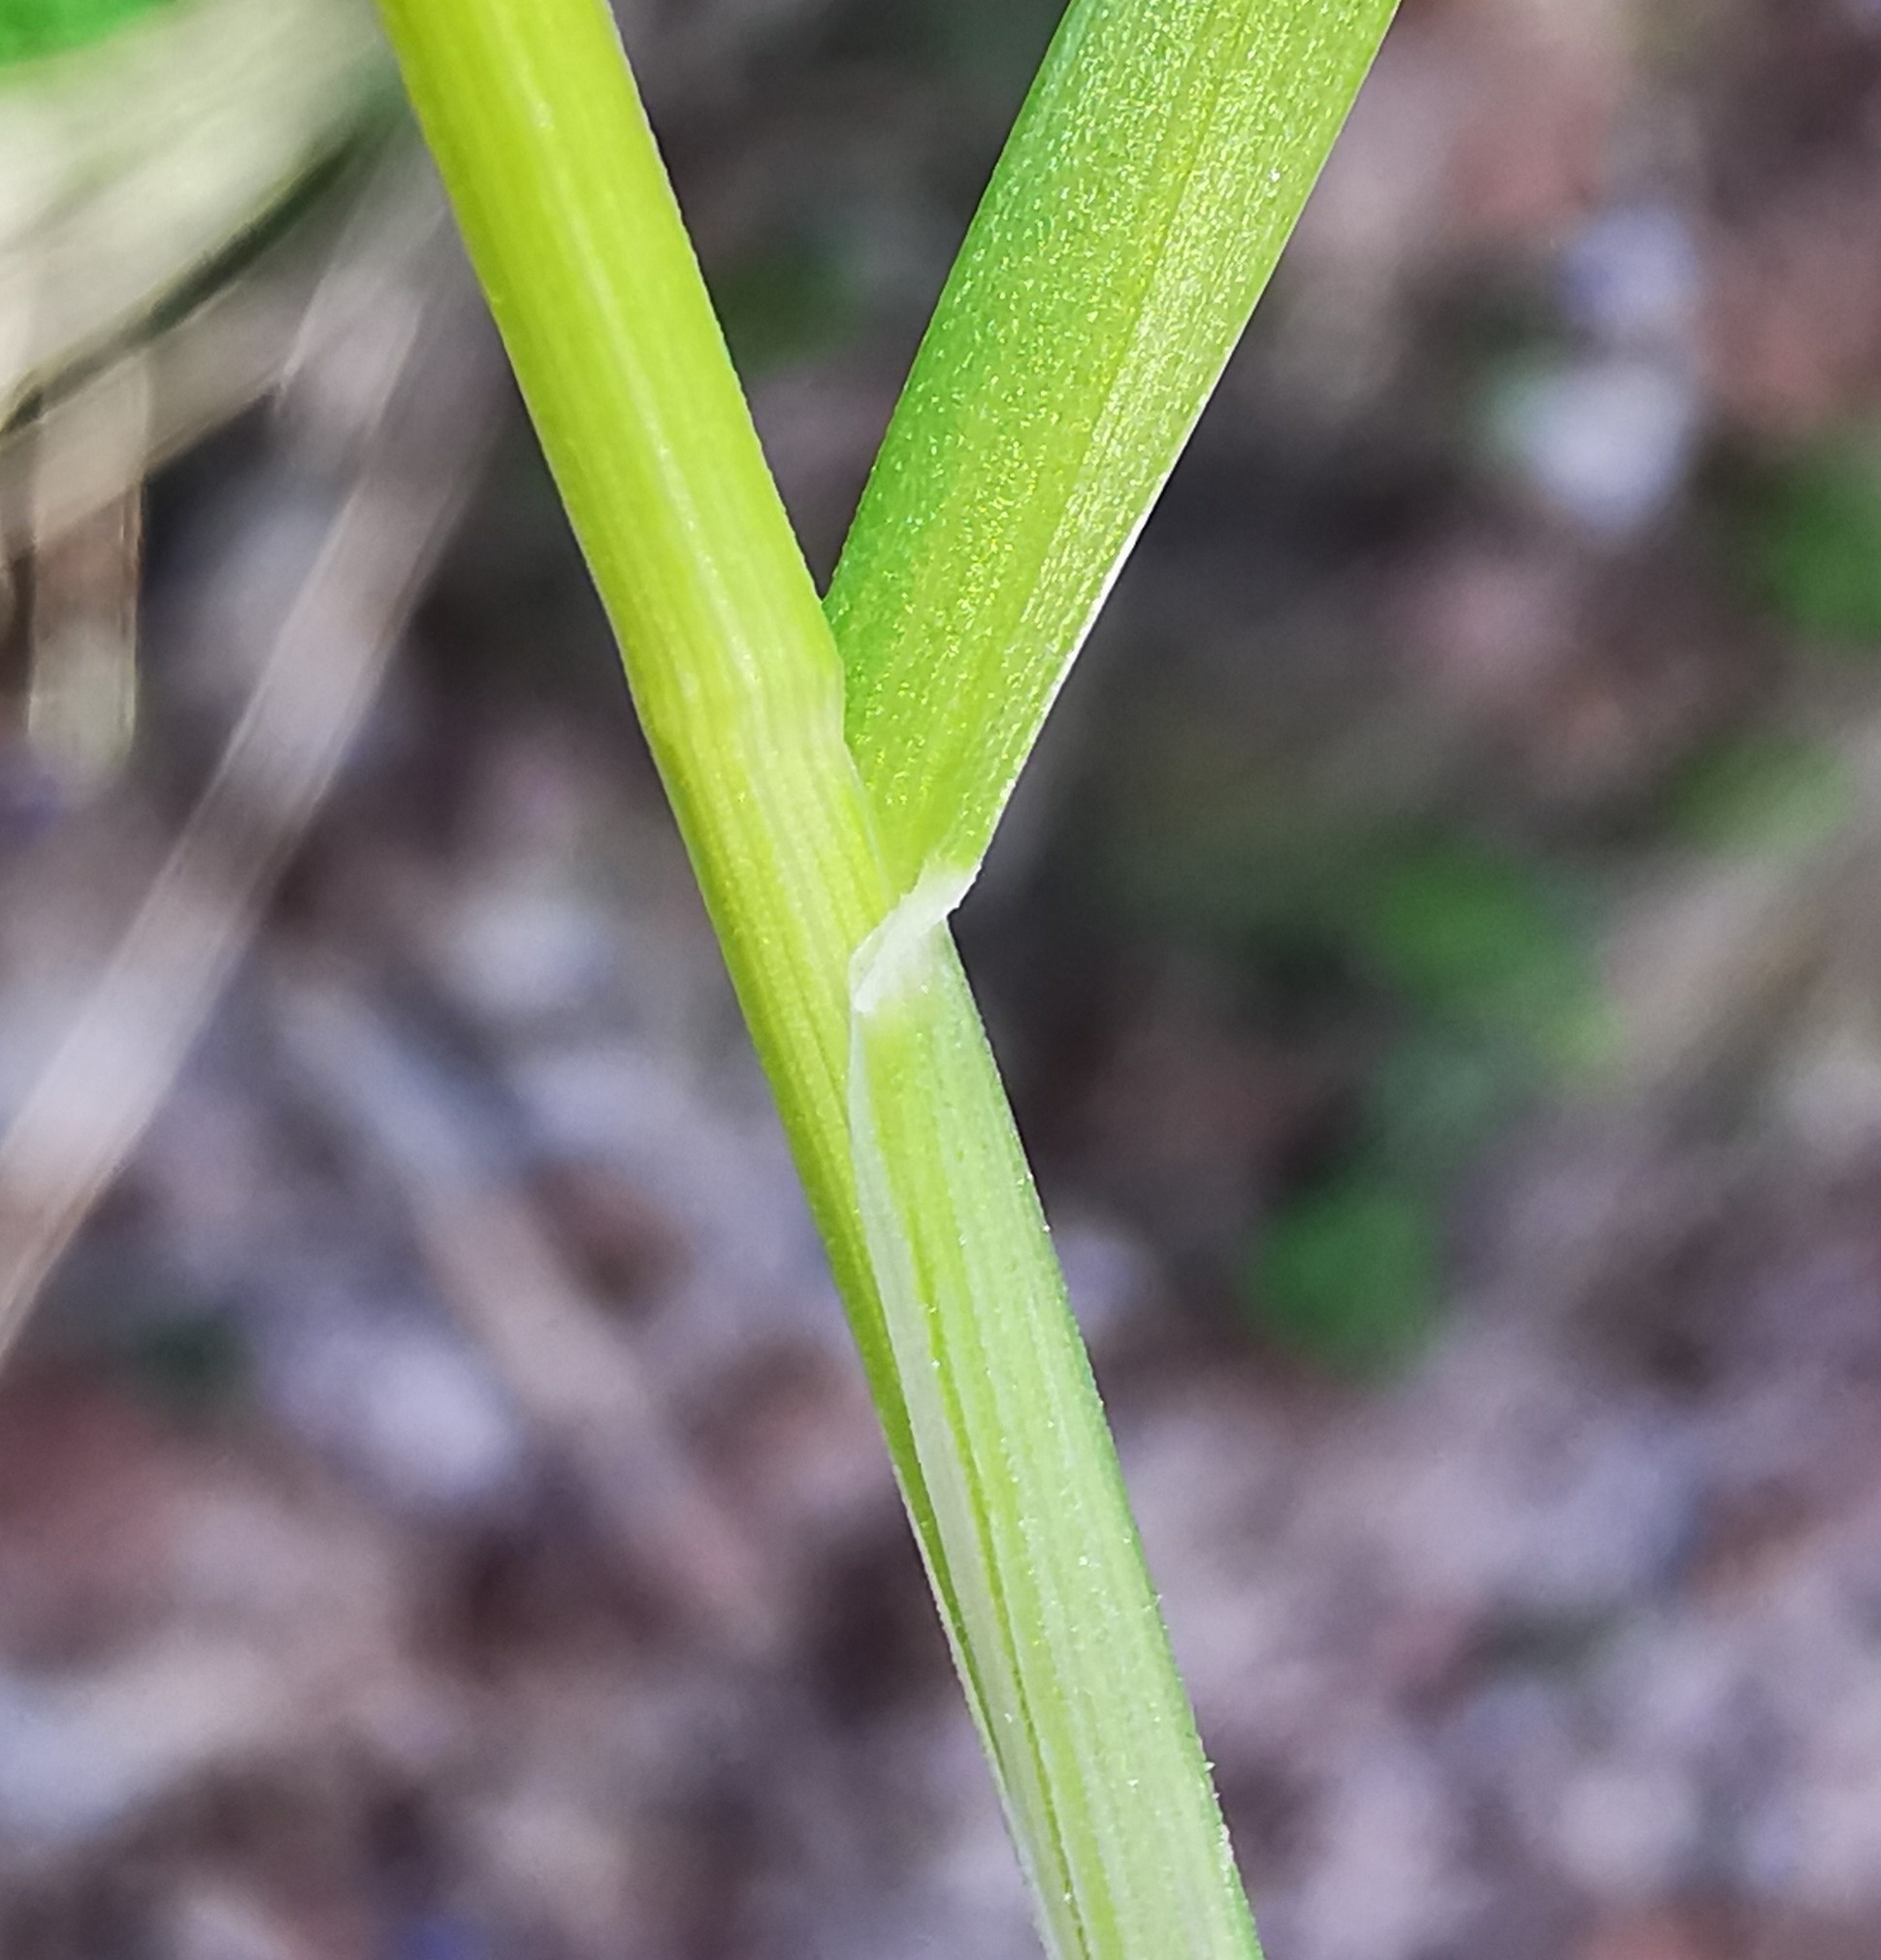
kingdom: Plantae
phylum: Tracheophyta
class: Liliopsida
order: Poales
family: Poaceae
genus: Poa
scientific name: Poa nemoralis
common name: Wood bluegrass
